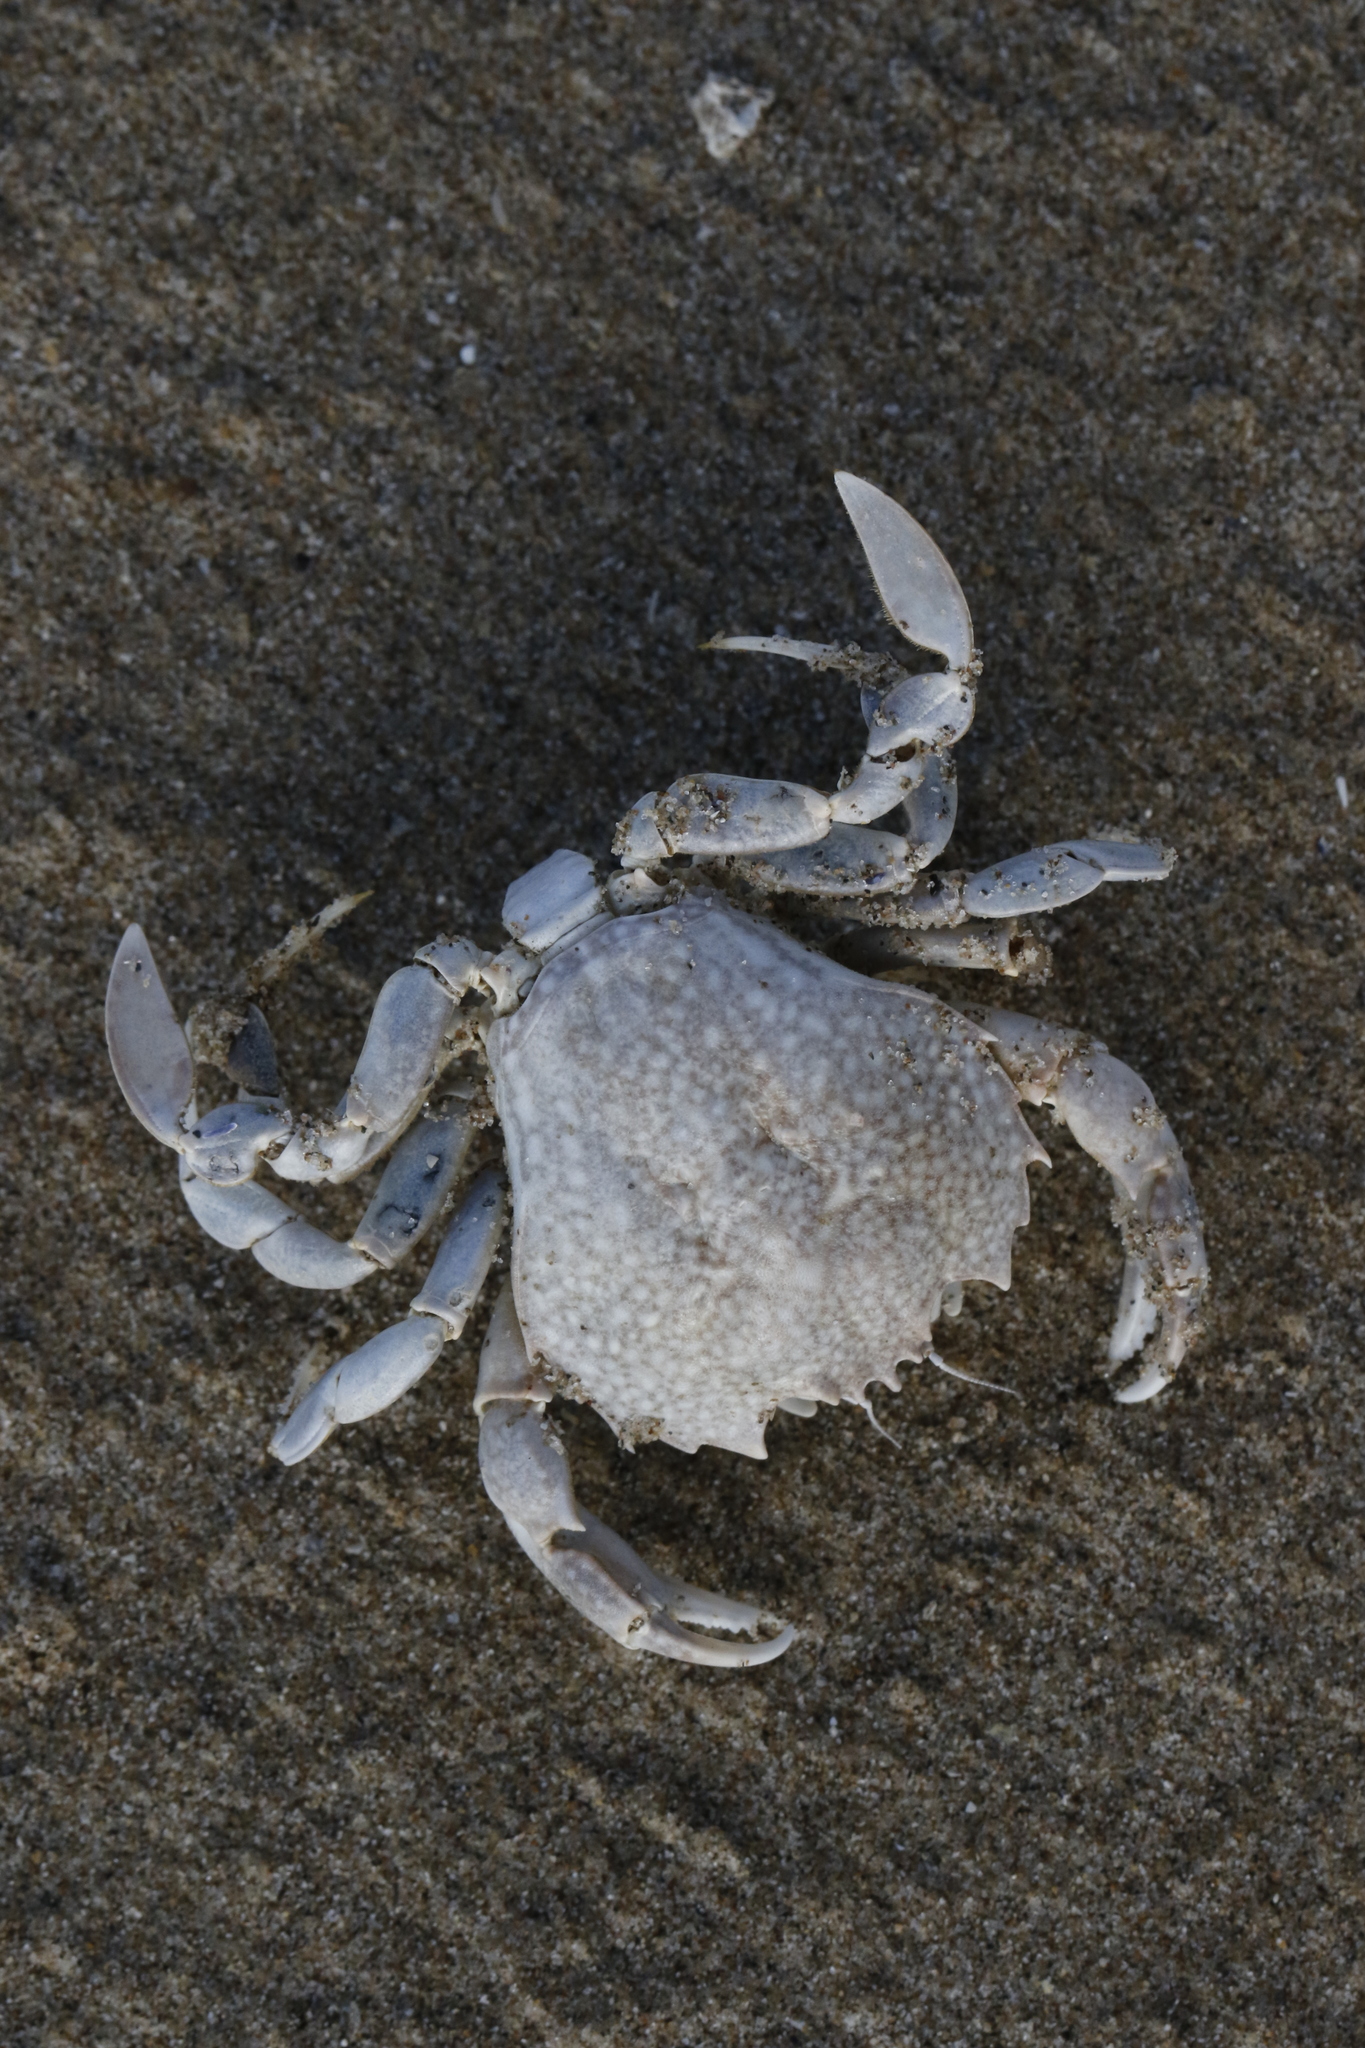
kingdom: Animalia
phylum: Arthropoda
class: Malacostraca
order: Decapoda
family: Carcinidae
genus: Portumnus
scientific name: Portumnus latipes
